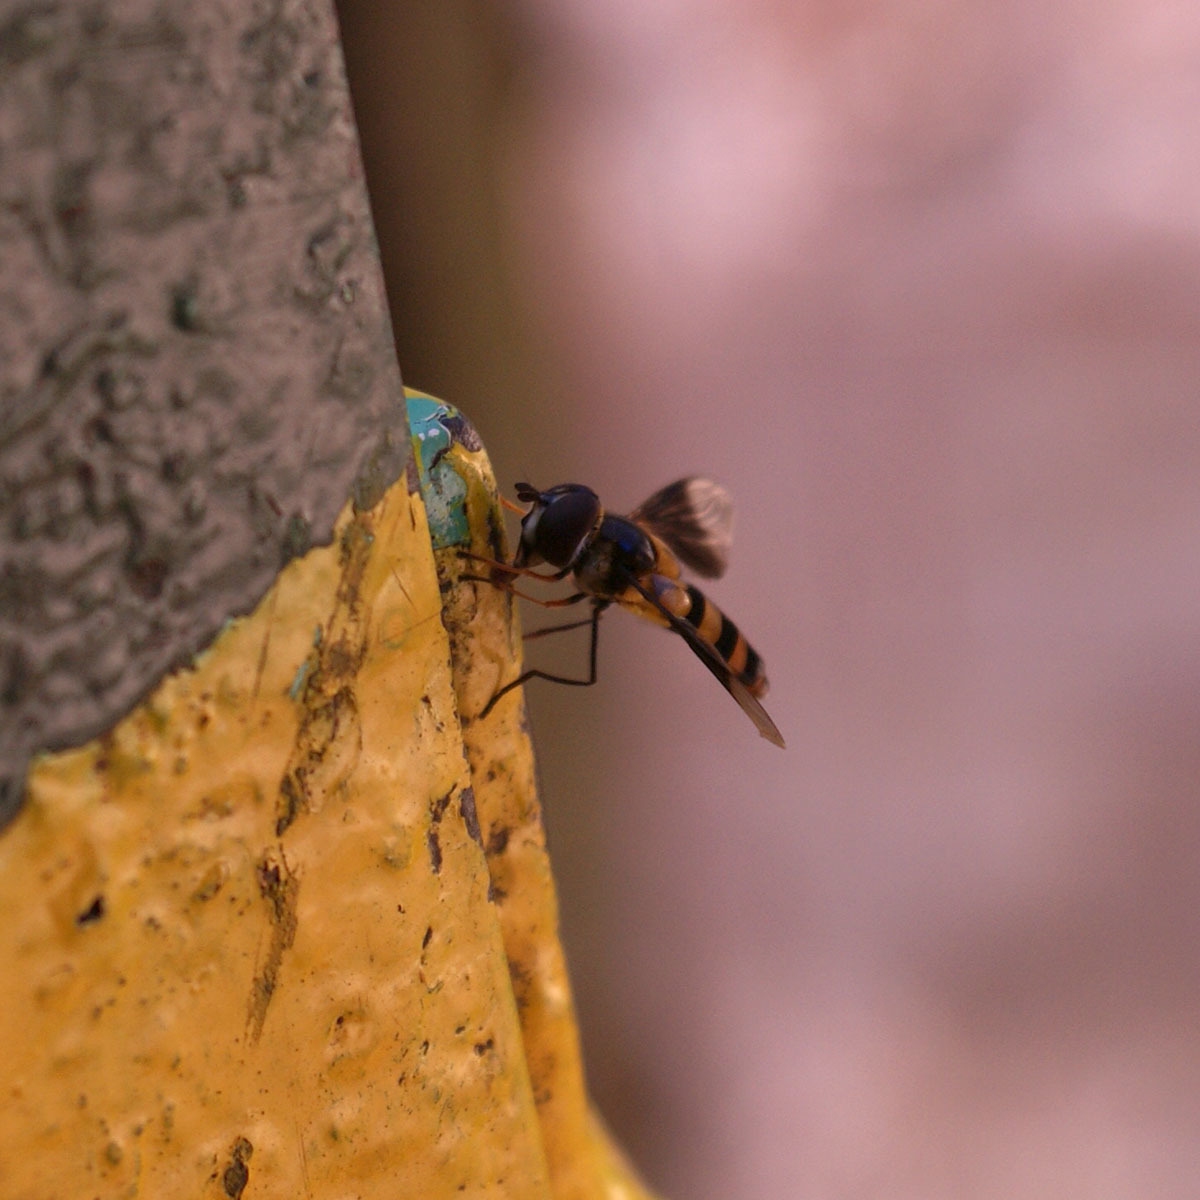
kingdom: Animalia
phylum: Arthropoda
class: Insecta
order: Diptera
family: Syrphidae
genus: Dideopsis
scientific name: Dideopsis aegrota
